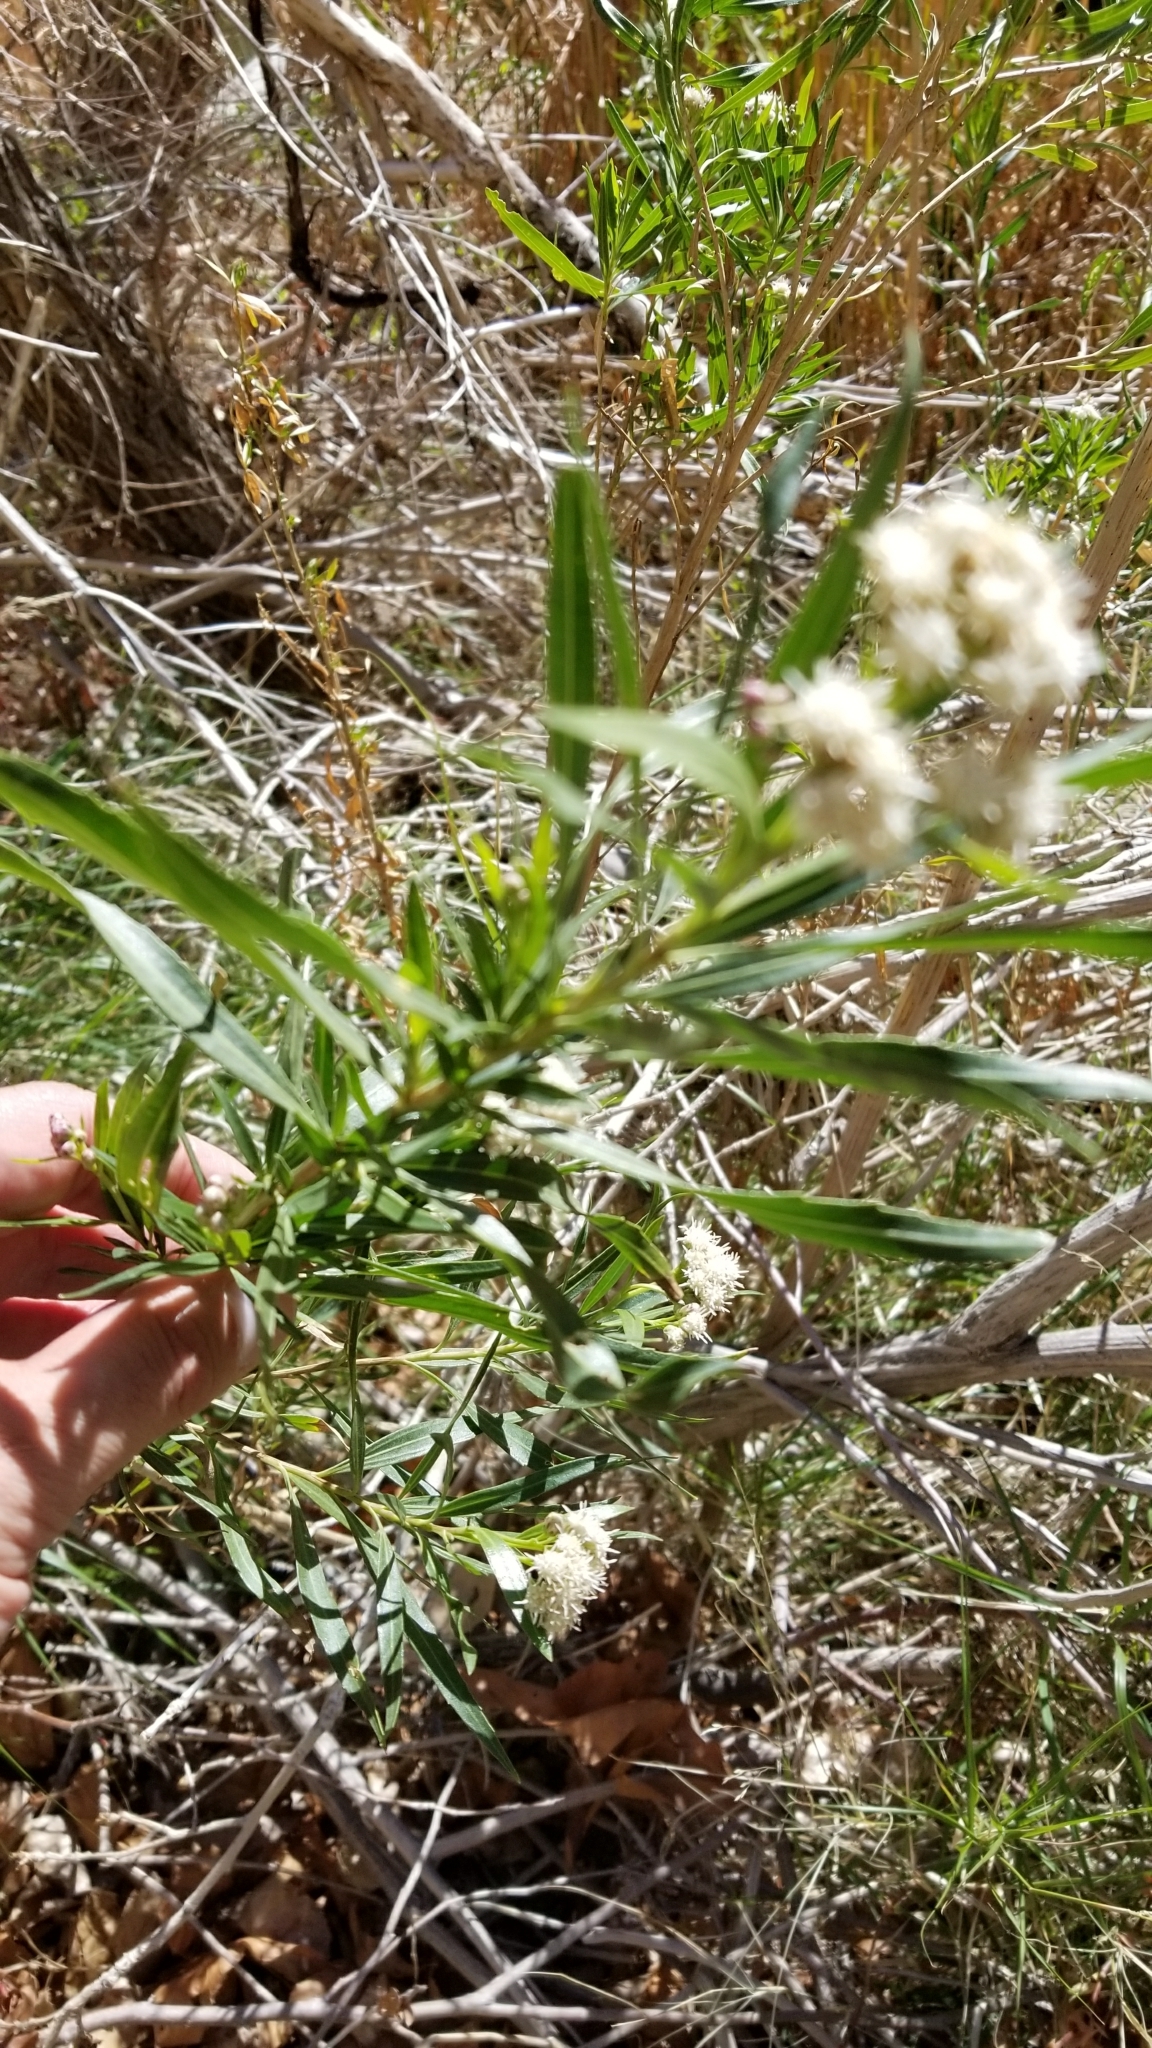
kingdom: Plantae
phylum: Tracheophyta
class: Magnoliopsida
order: Asterales
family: Asteraceae
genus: Baccharis
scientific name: Baccharis salicifolia
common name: Sticky baccharis
